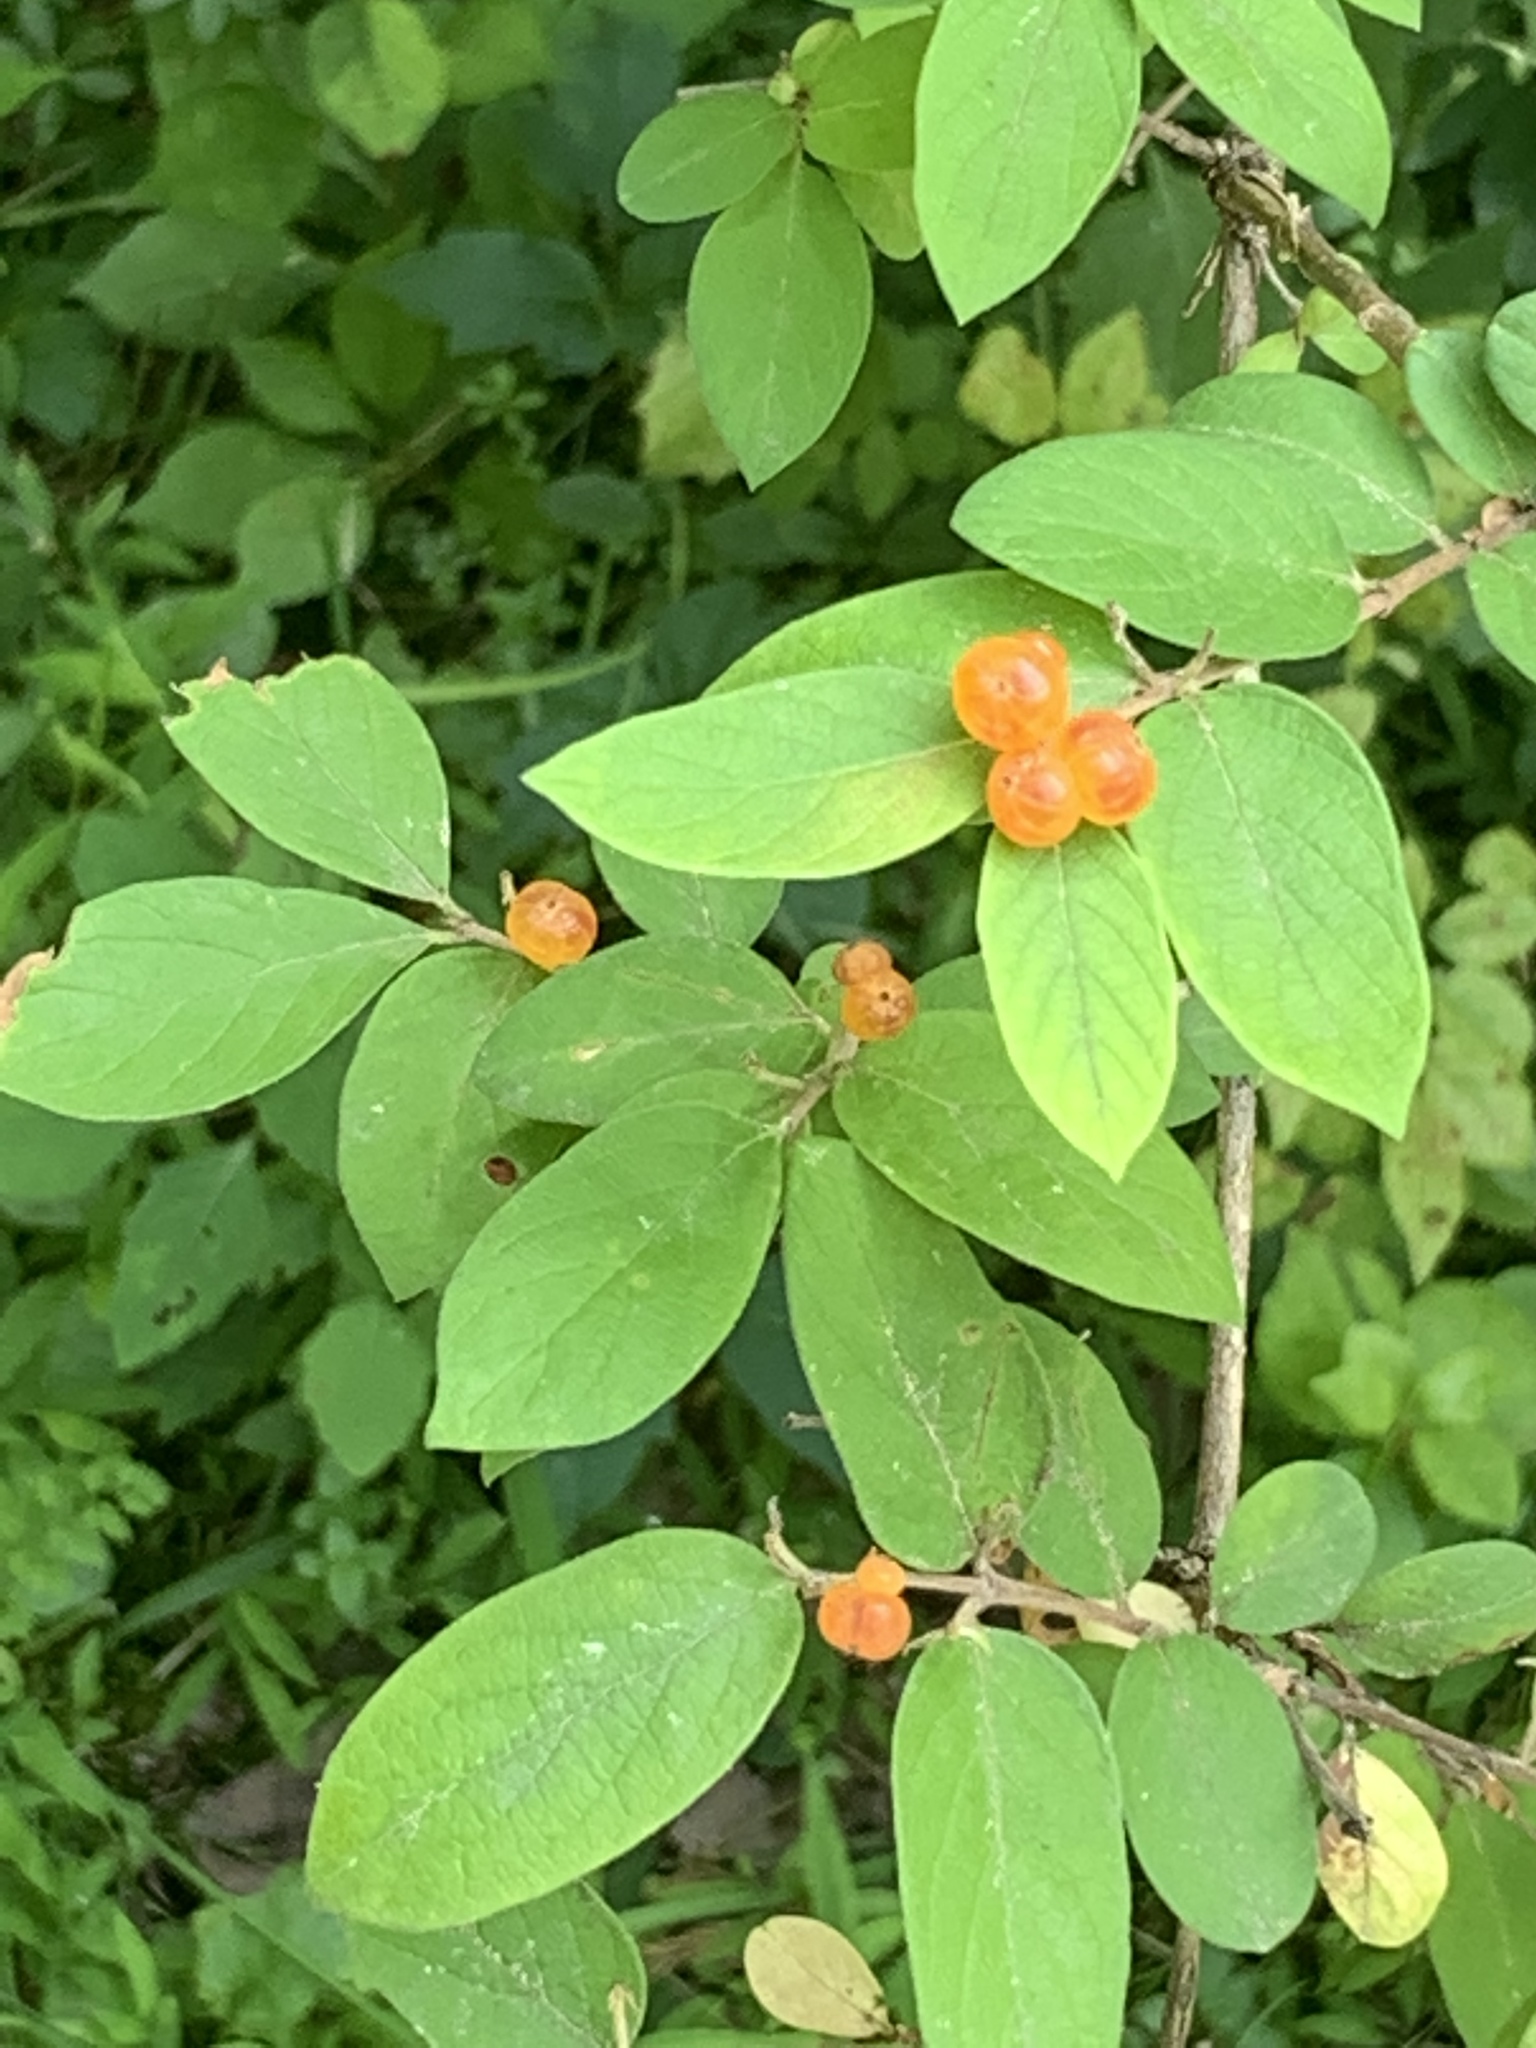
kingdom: Plantae
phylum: Tracheophyta
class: Magnoliopsida
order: Dipsacales
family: Caprifoliaceae
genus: Lonicera
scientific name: Lonicera morrowii
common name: Morrow's honeysuckle
